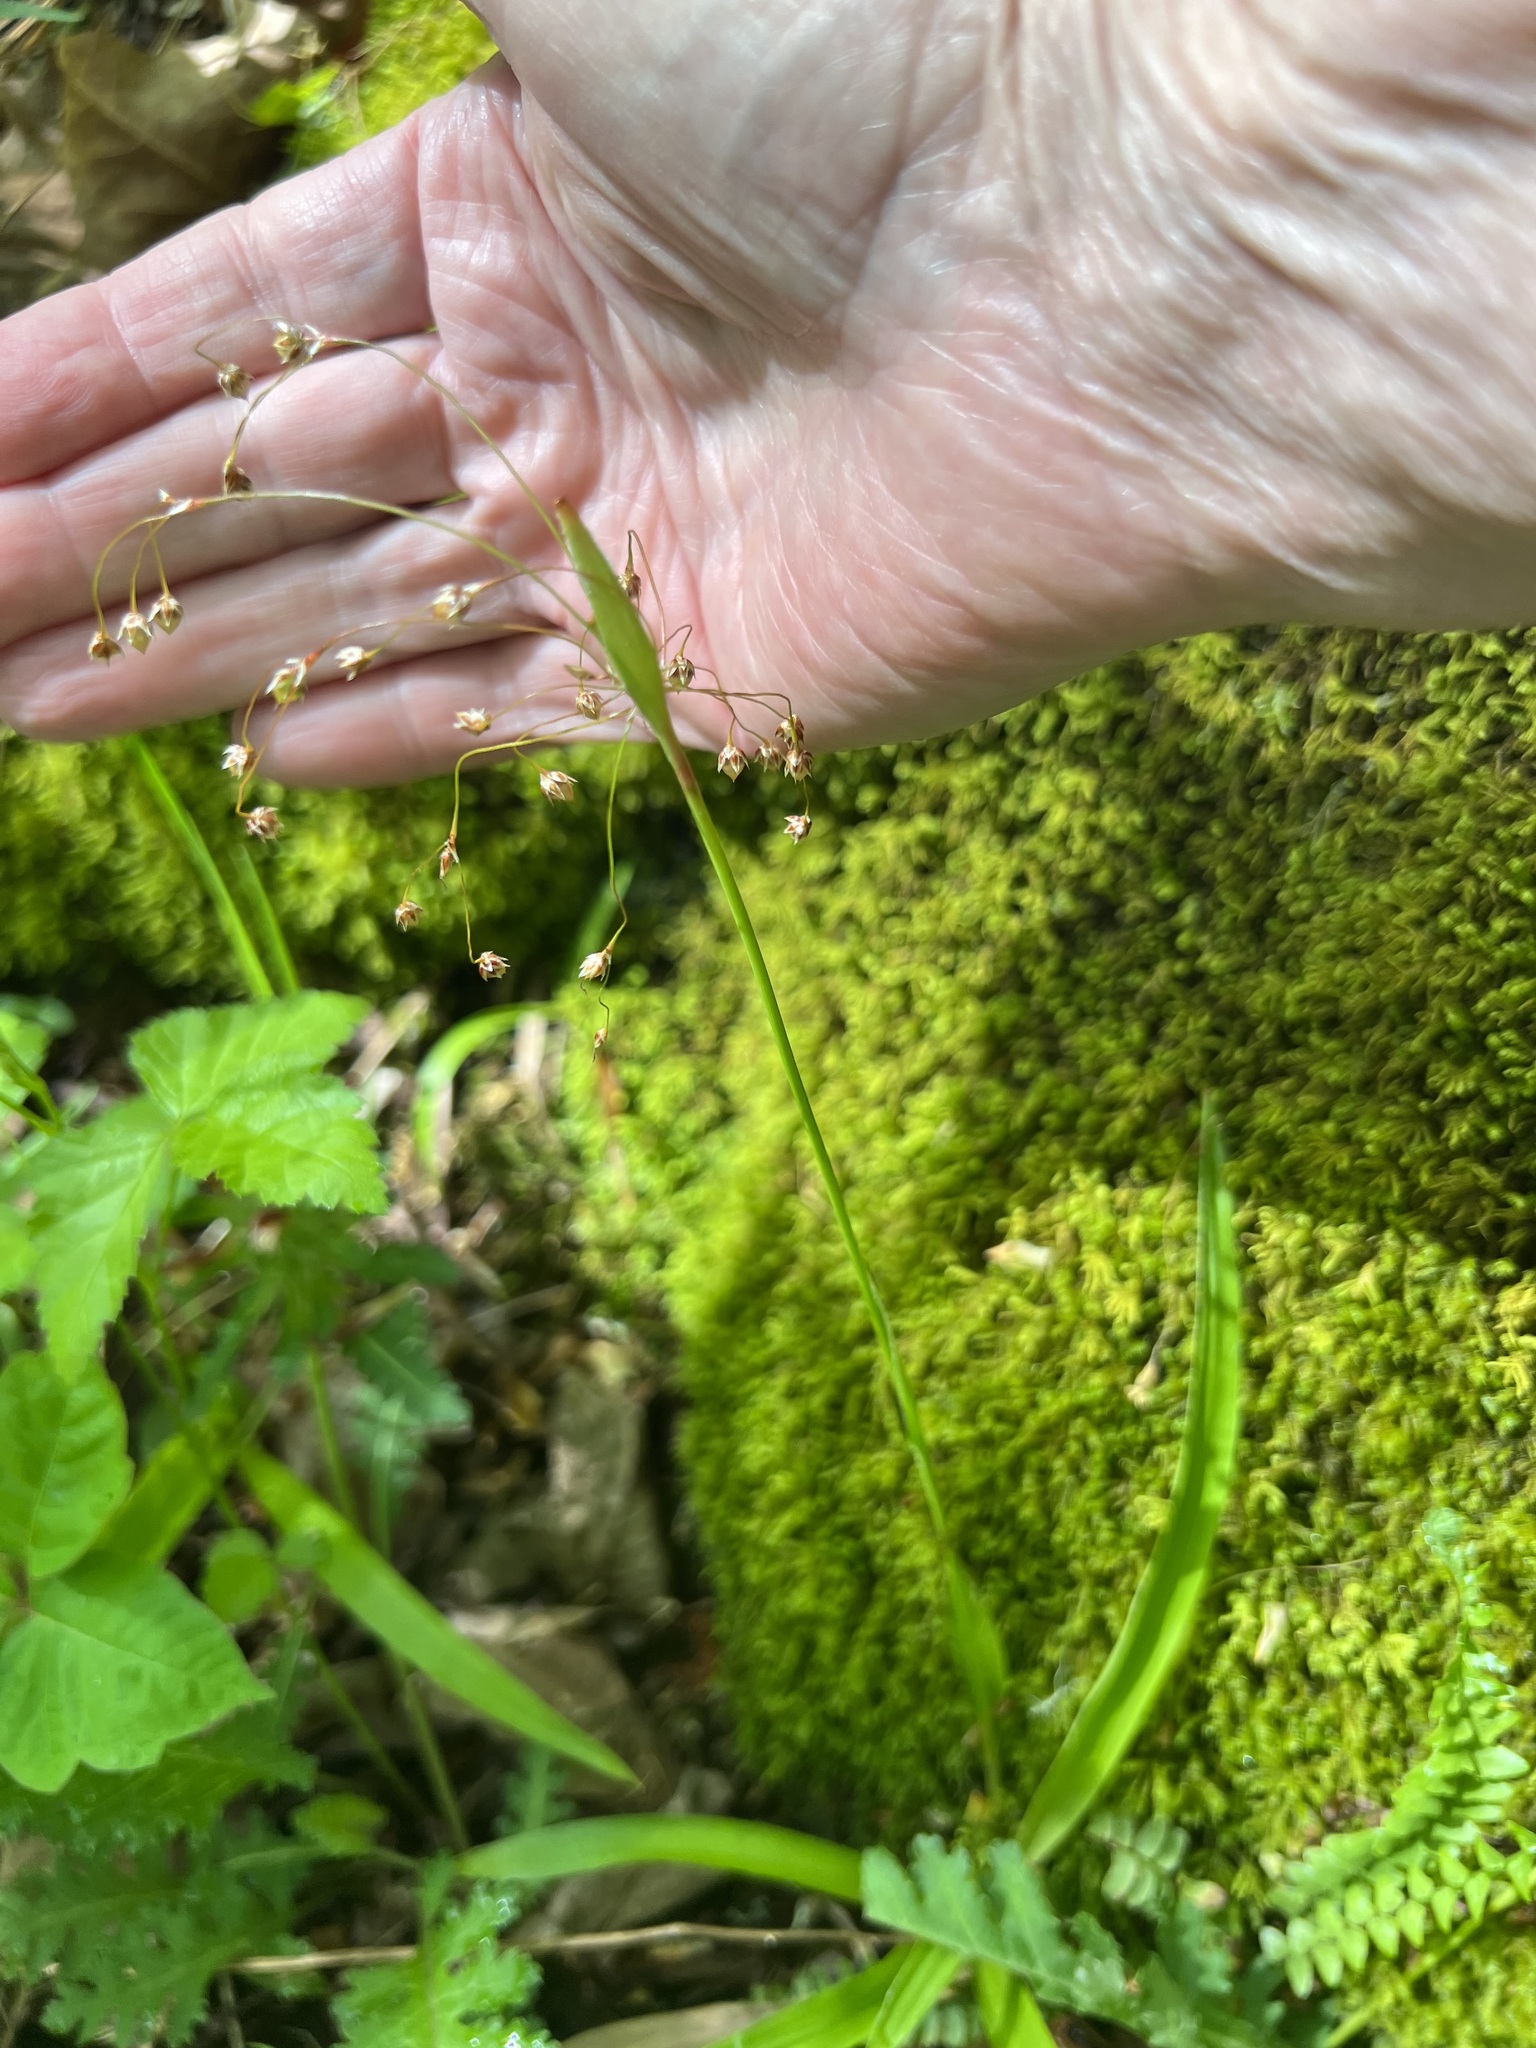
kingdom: Plantae
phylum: Tracheophyta
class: Liliopsida
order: Poales
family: Juncaceae
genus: Luzula
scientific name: Luzula acuminata
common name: Hairy woodrush
